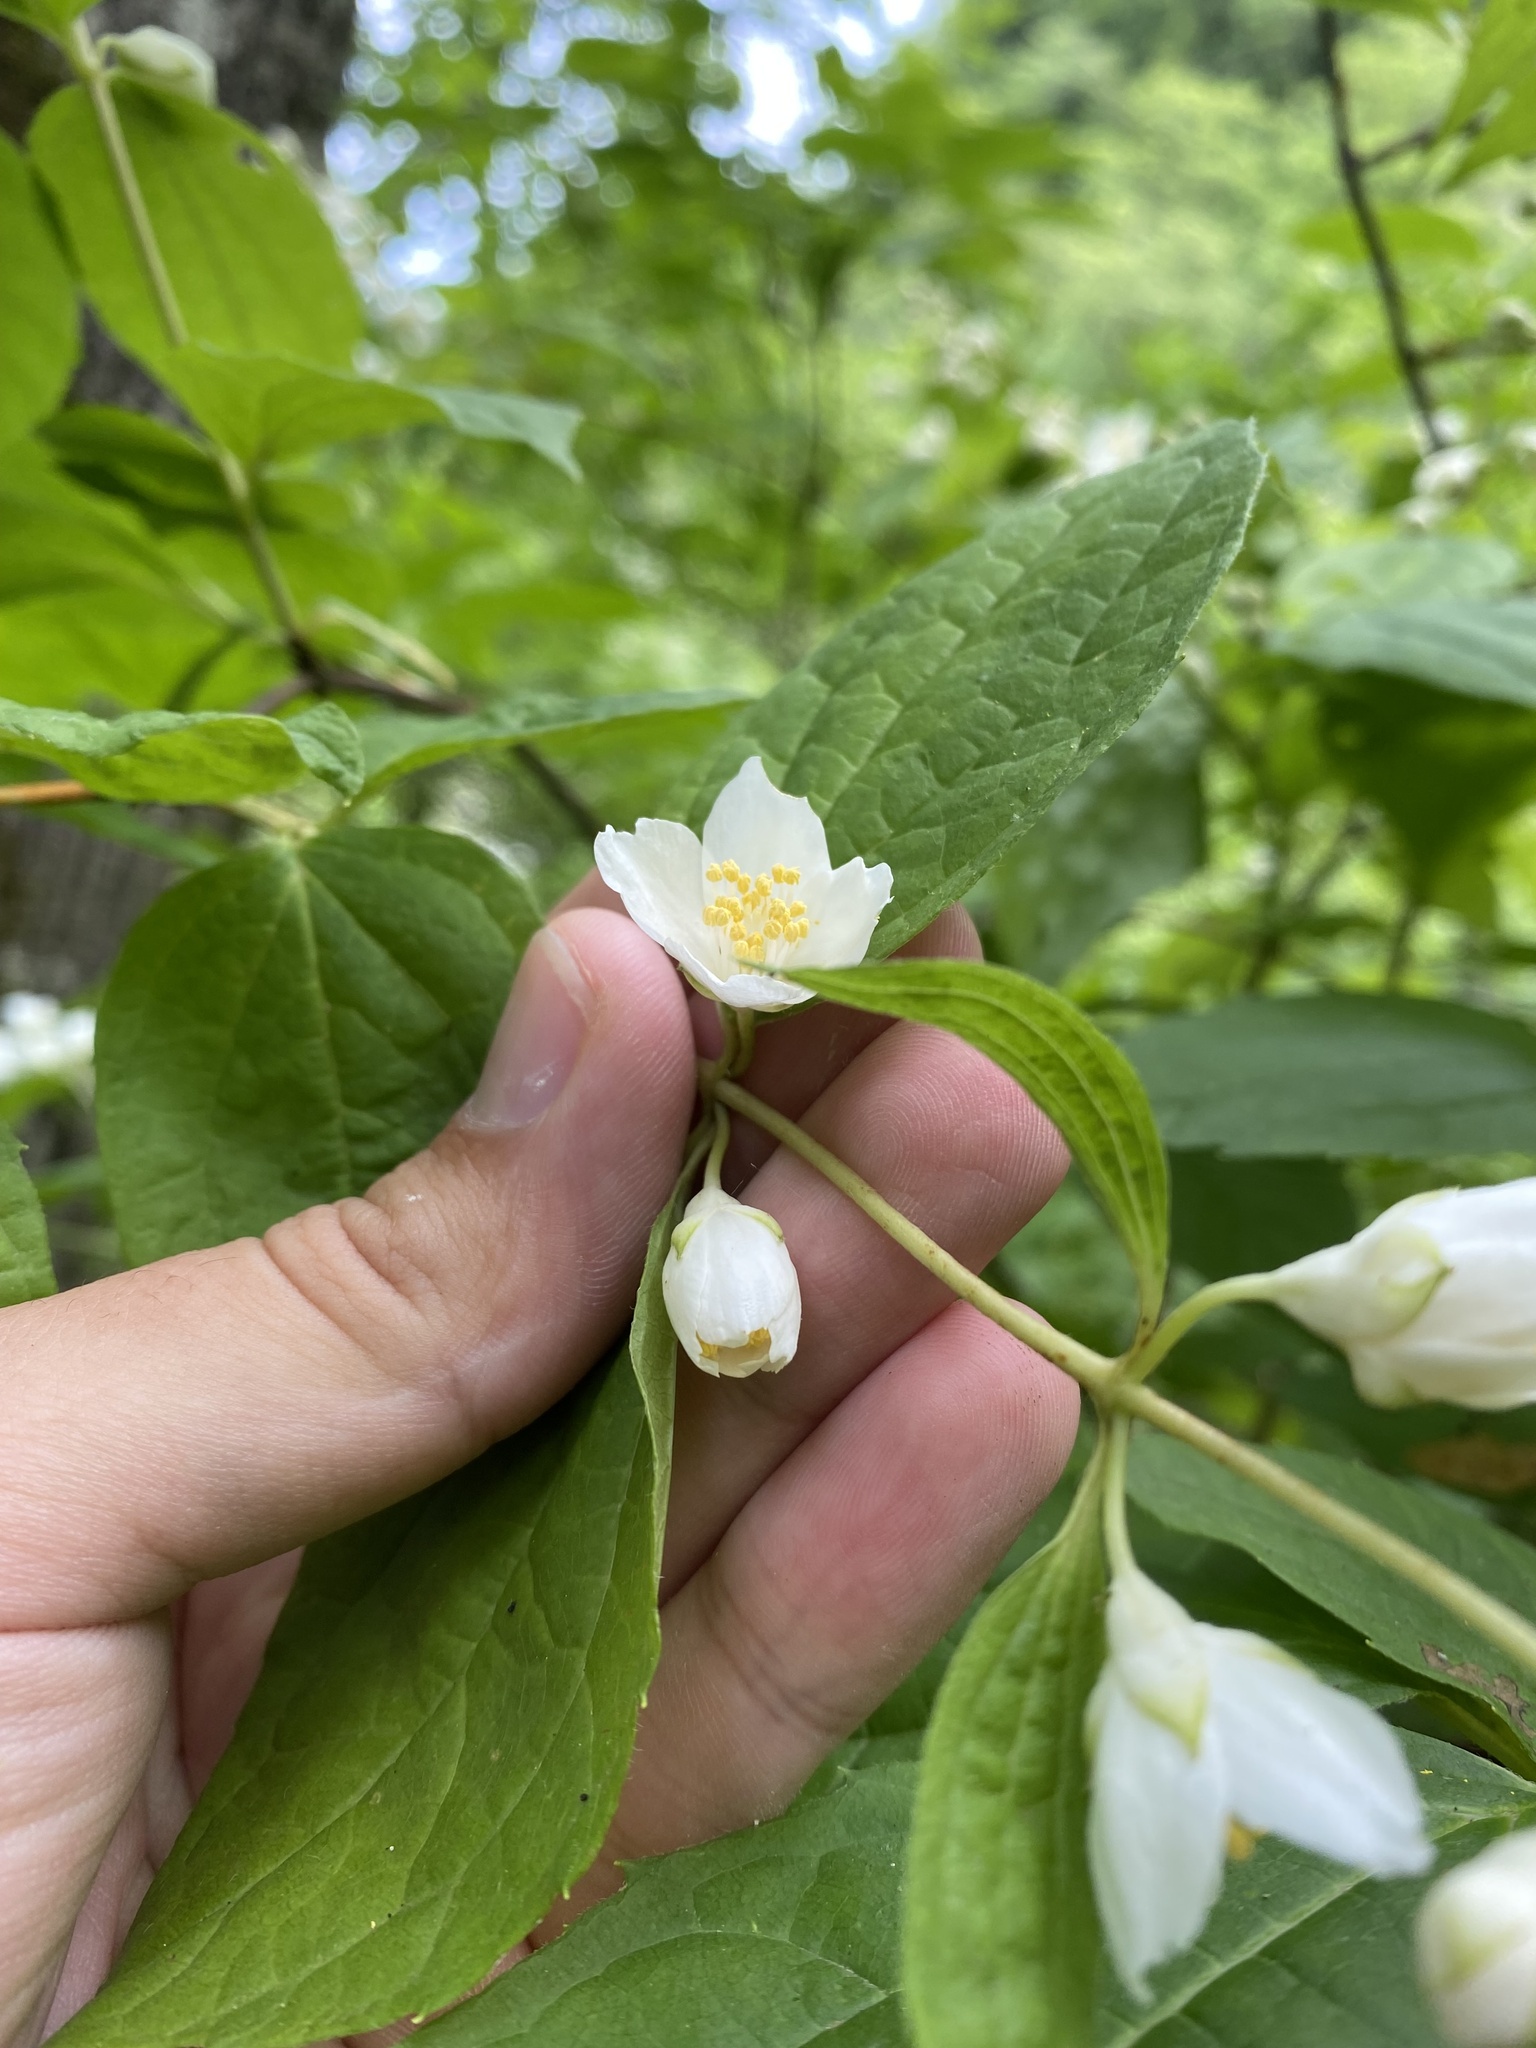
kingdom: Plantae
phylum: Tracheophyta
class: Magnoliopsida
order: Cornales
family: Hydrangeaceae
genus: Philadelphus
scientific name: Philadelphus coronarius
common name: Mock orange
